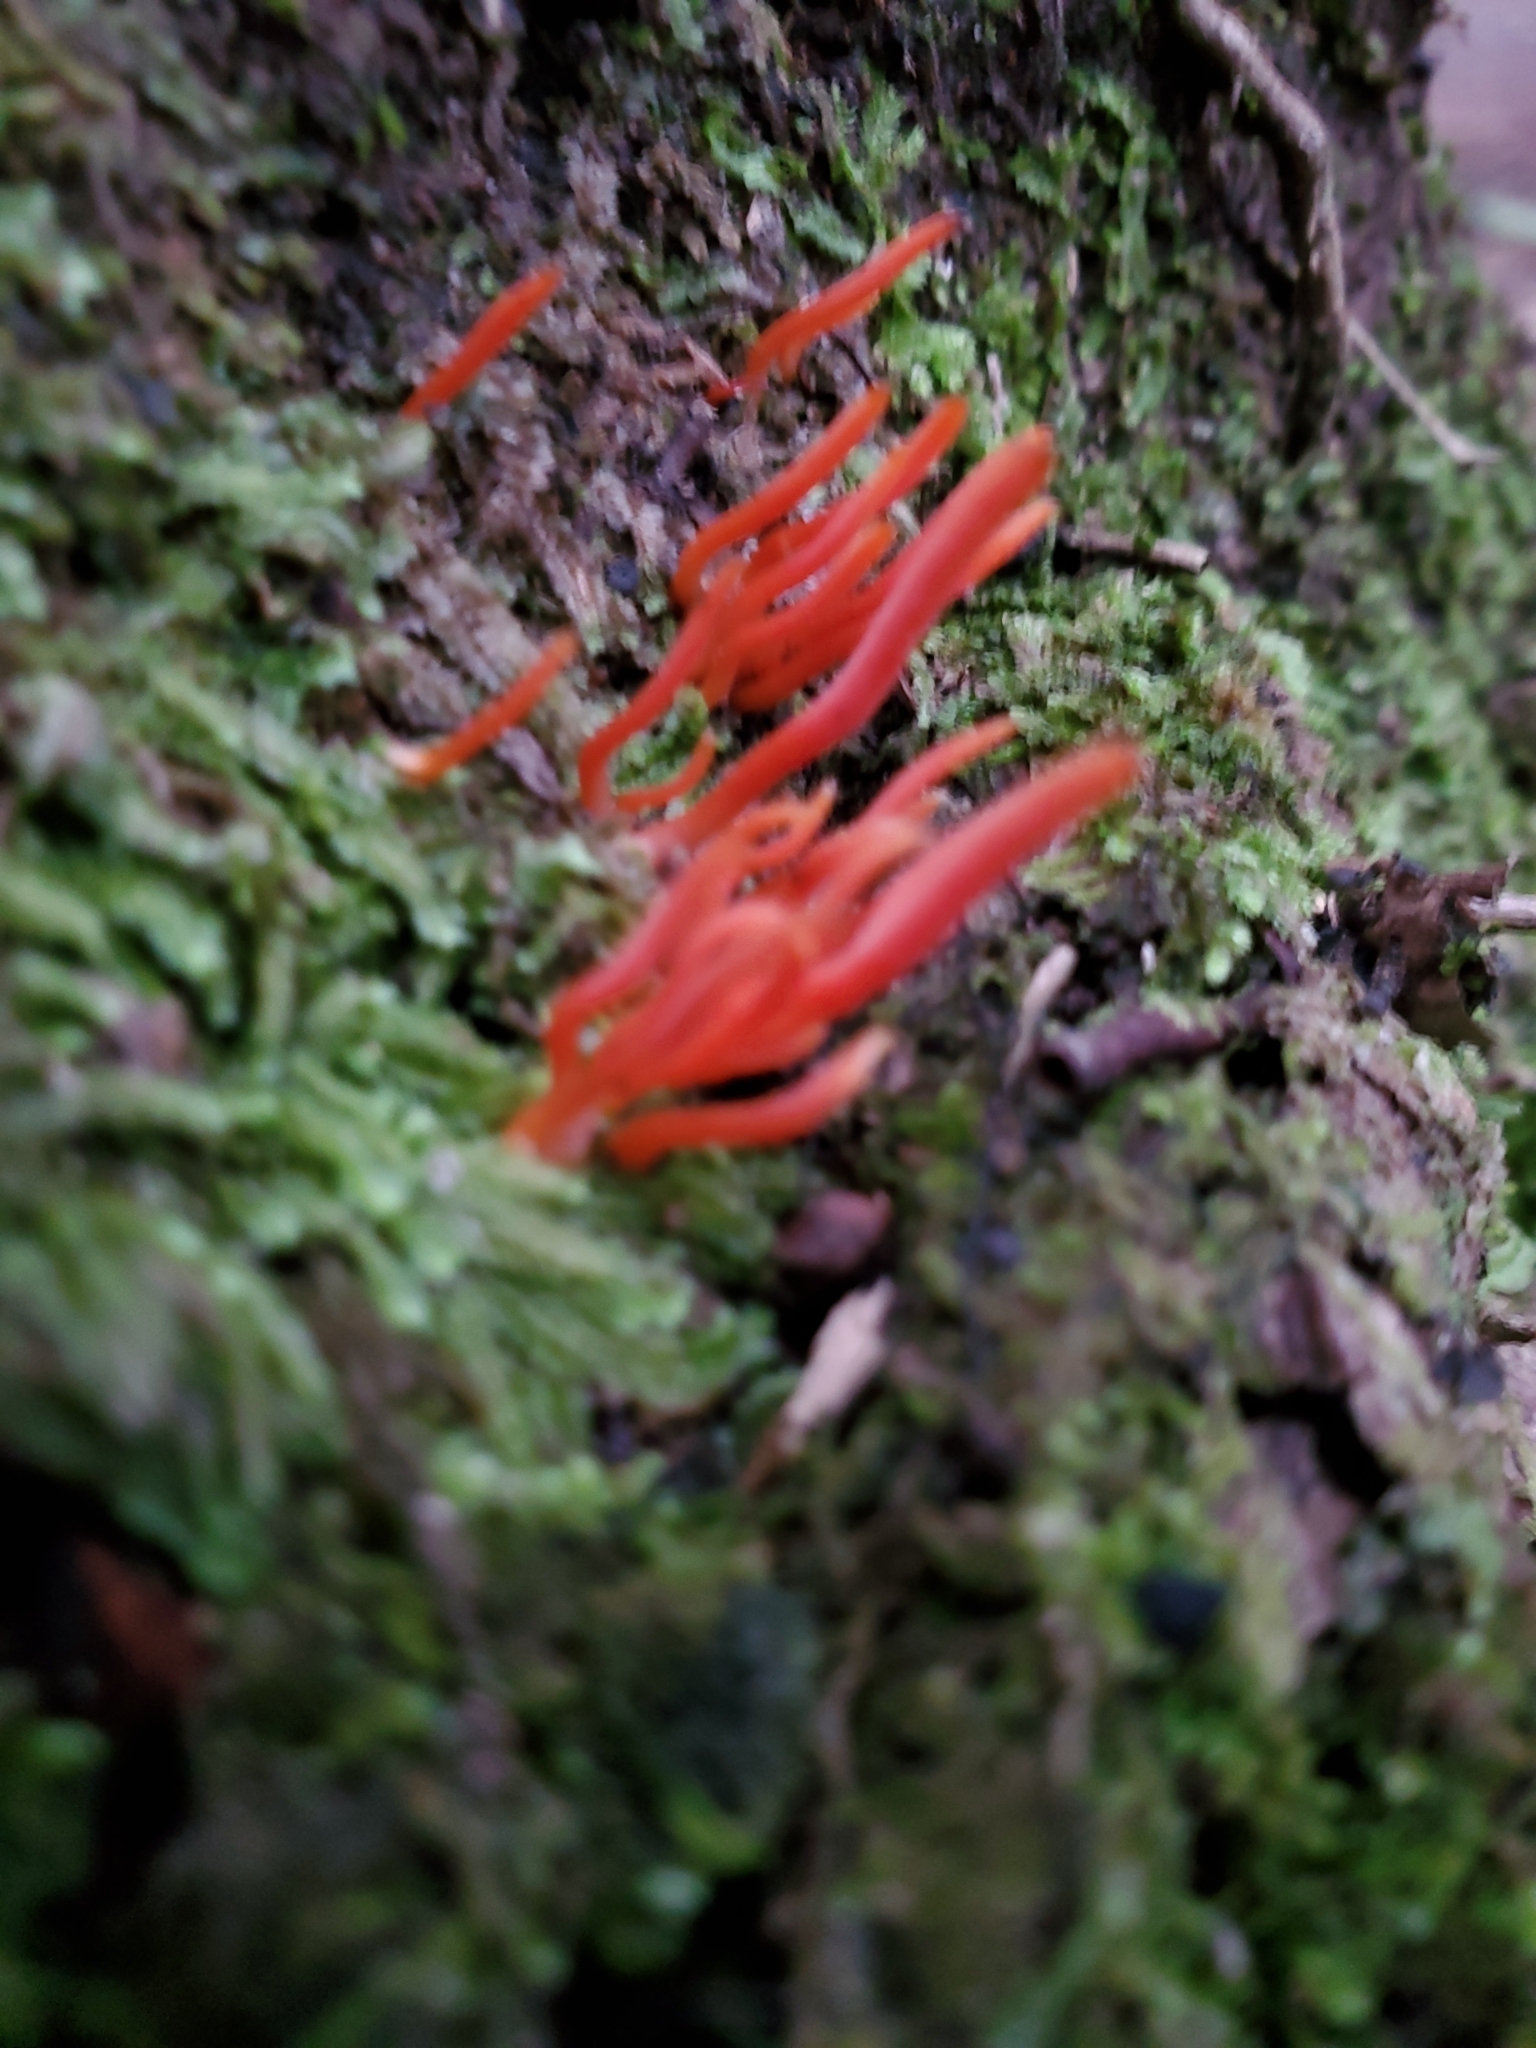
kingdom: Fungi
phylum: Basidiomycota
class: Agaricomycetes
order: Agaricales
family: Clavariaceae
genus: Clavulinopsis
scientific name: Clavulinopsis corallinorosacea
